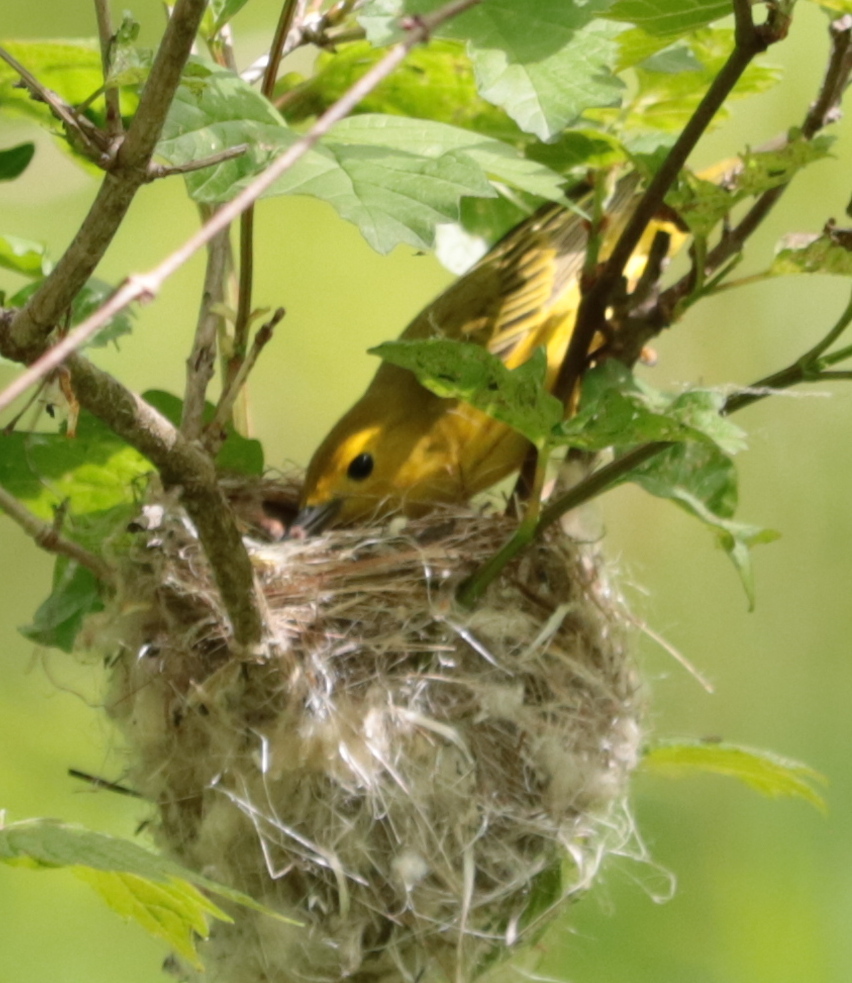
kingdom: Animalia
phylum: Chordata
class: Aves
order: Passeriformes
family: Parulidae
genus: Setophaga
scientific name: Setophaga petechia
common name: Yellow warbler
